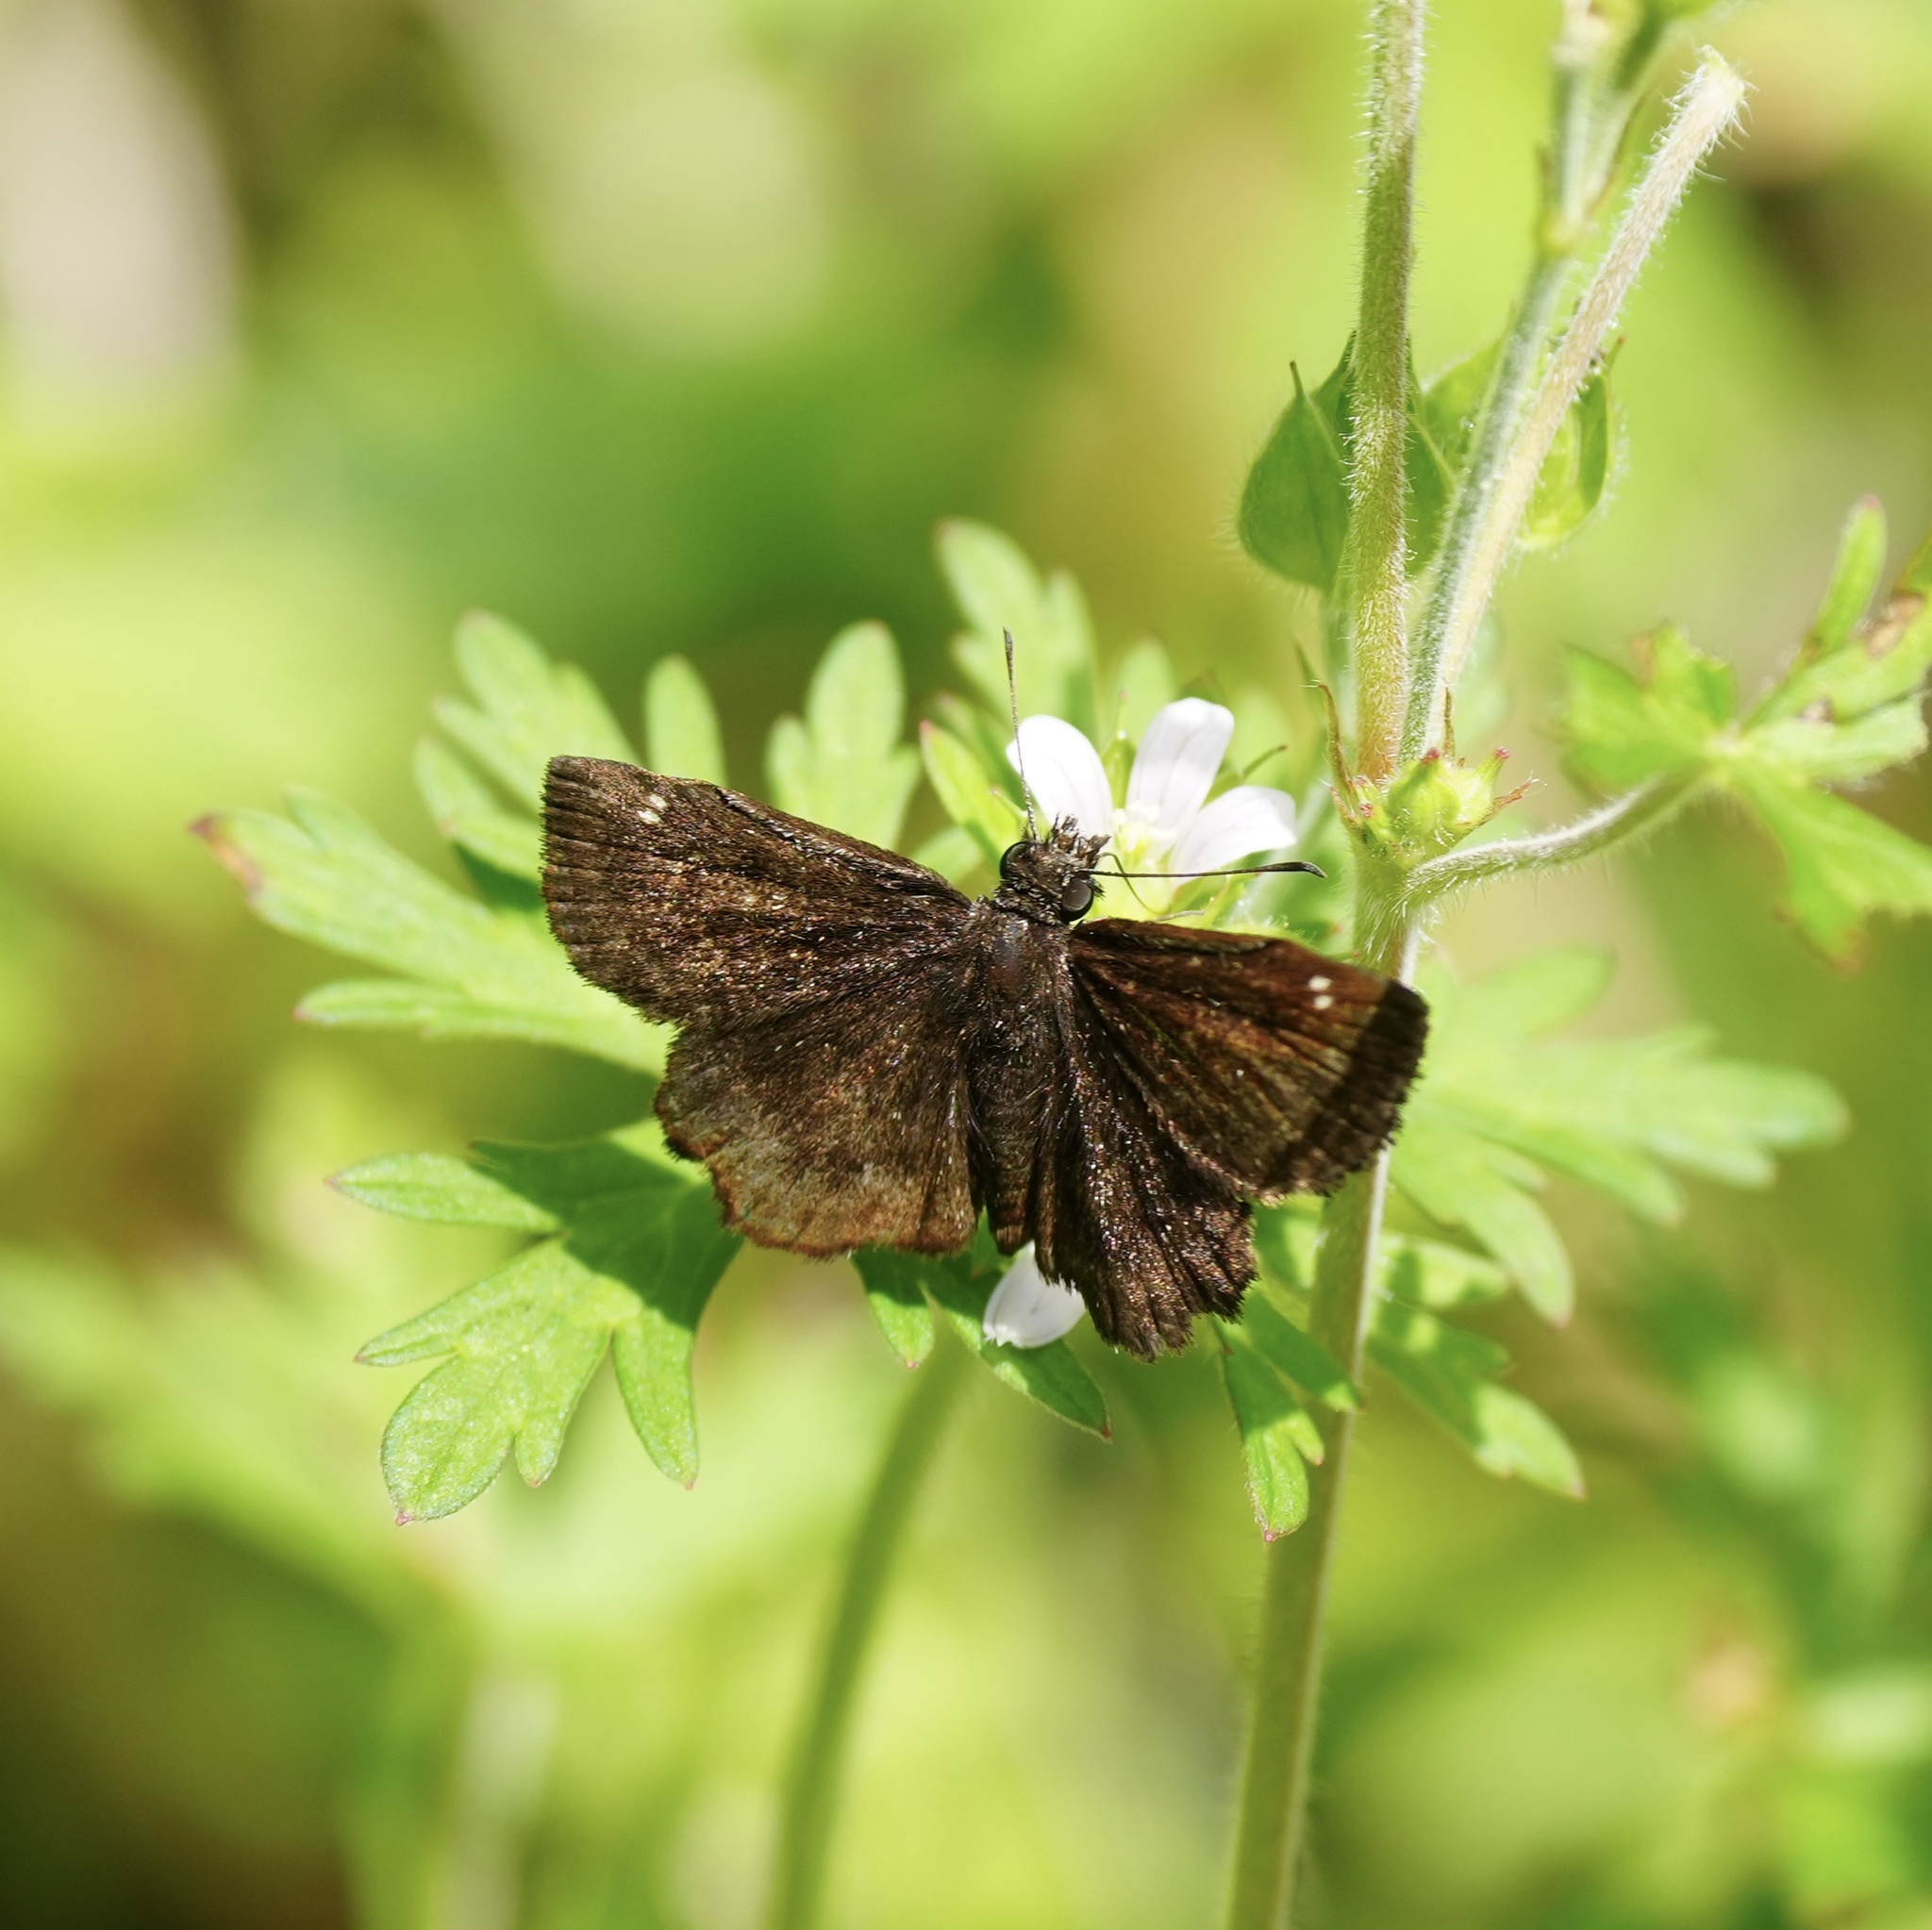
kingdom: Animalia
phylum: Arthropoda
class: Insecta
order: Lepidoptera
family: Hesperiidae
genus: Staphylus
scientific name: Staphylus mazans
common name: Mazans scallopwing
